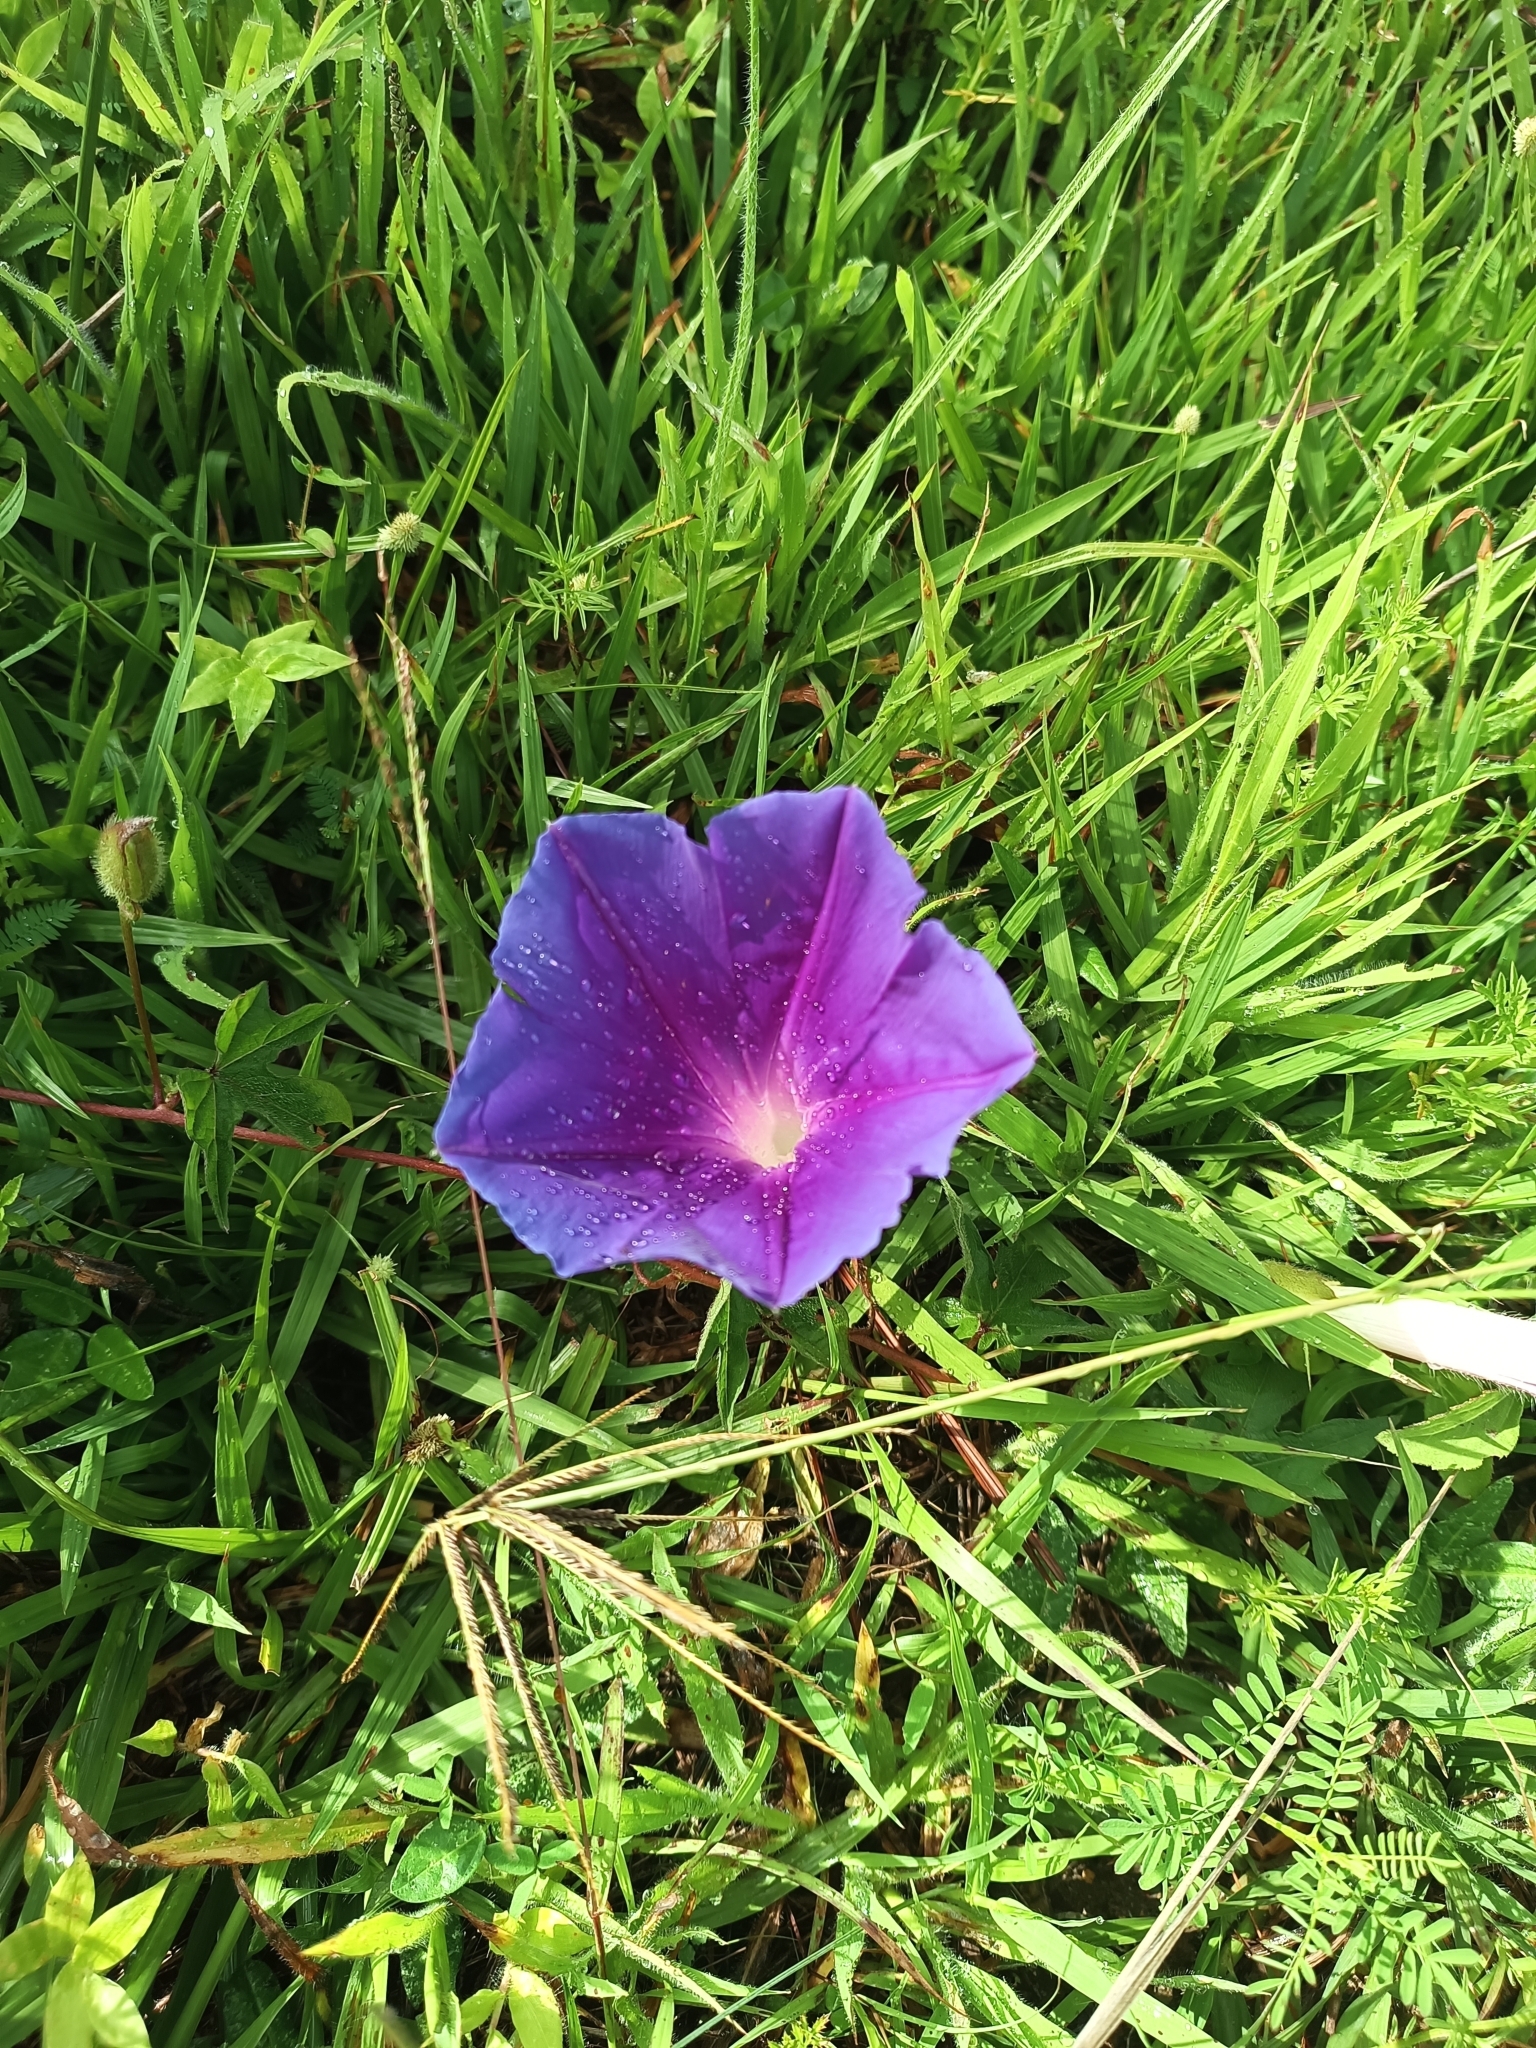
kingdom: Plantae
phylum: Tracheophyta
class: Magnoliopsida
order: Solanales
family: Convolvulaceae
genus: Ipomoea
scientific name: Ipomoea laeta
